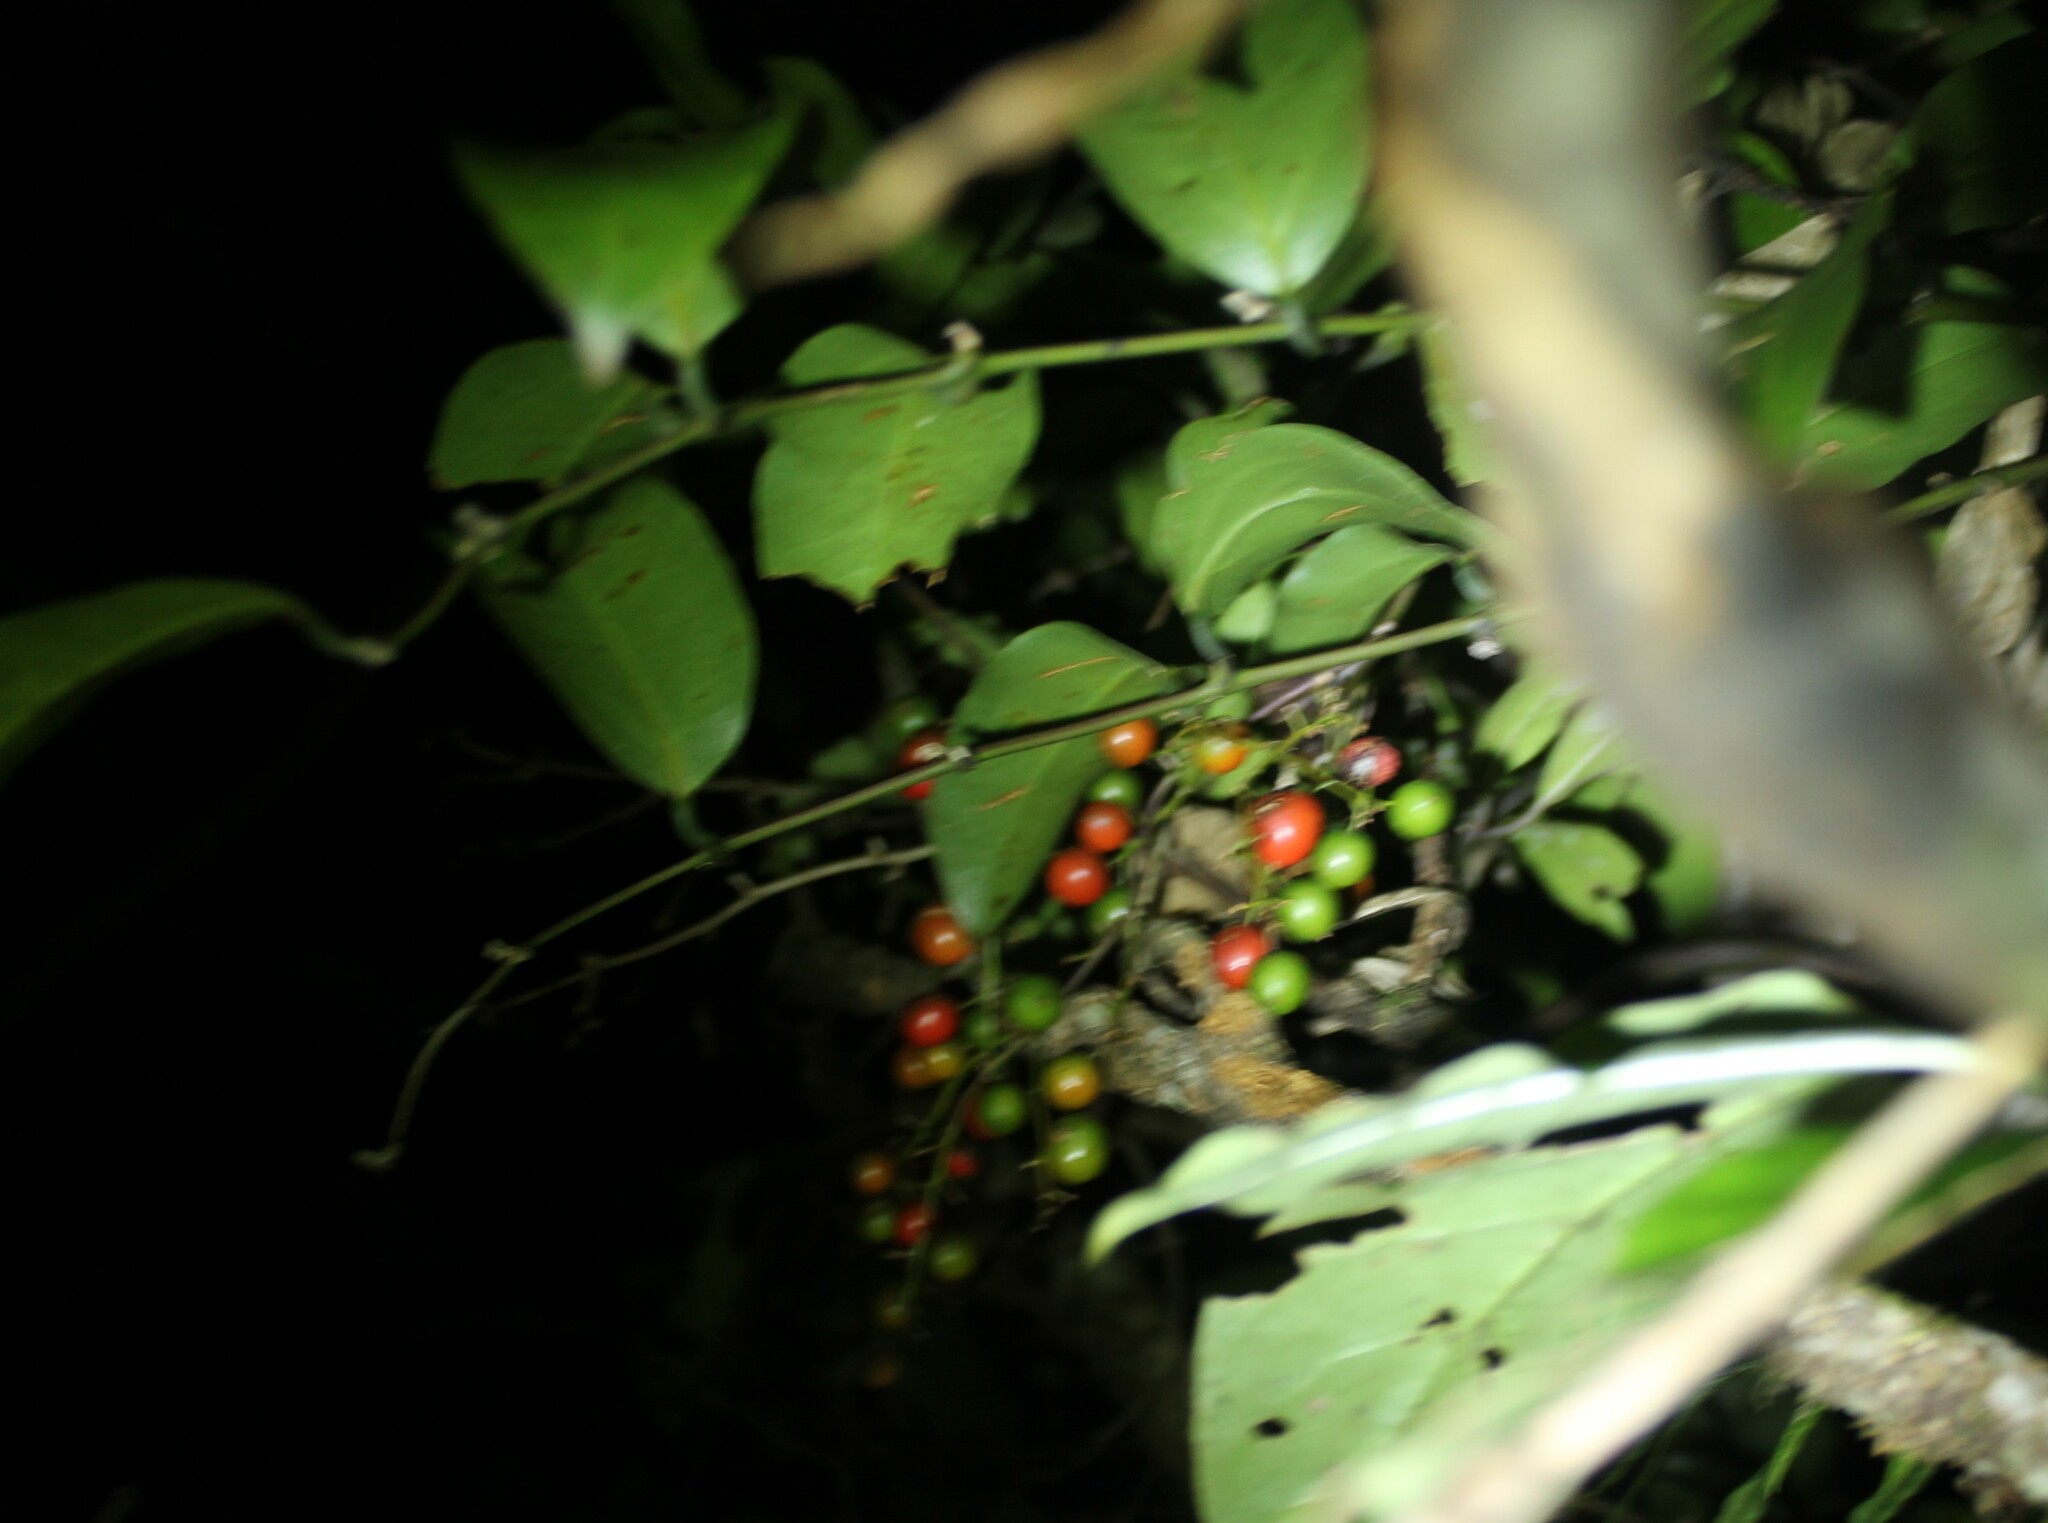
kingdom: Plantae
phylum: Tracheophyta
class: Liliopsida
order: Liliales
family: Ripogonaceae
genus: Ripogonum
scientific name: Ripogonum scandens
